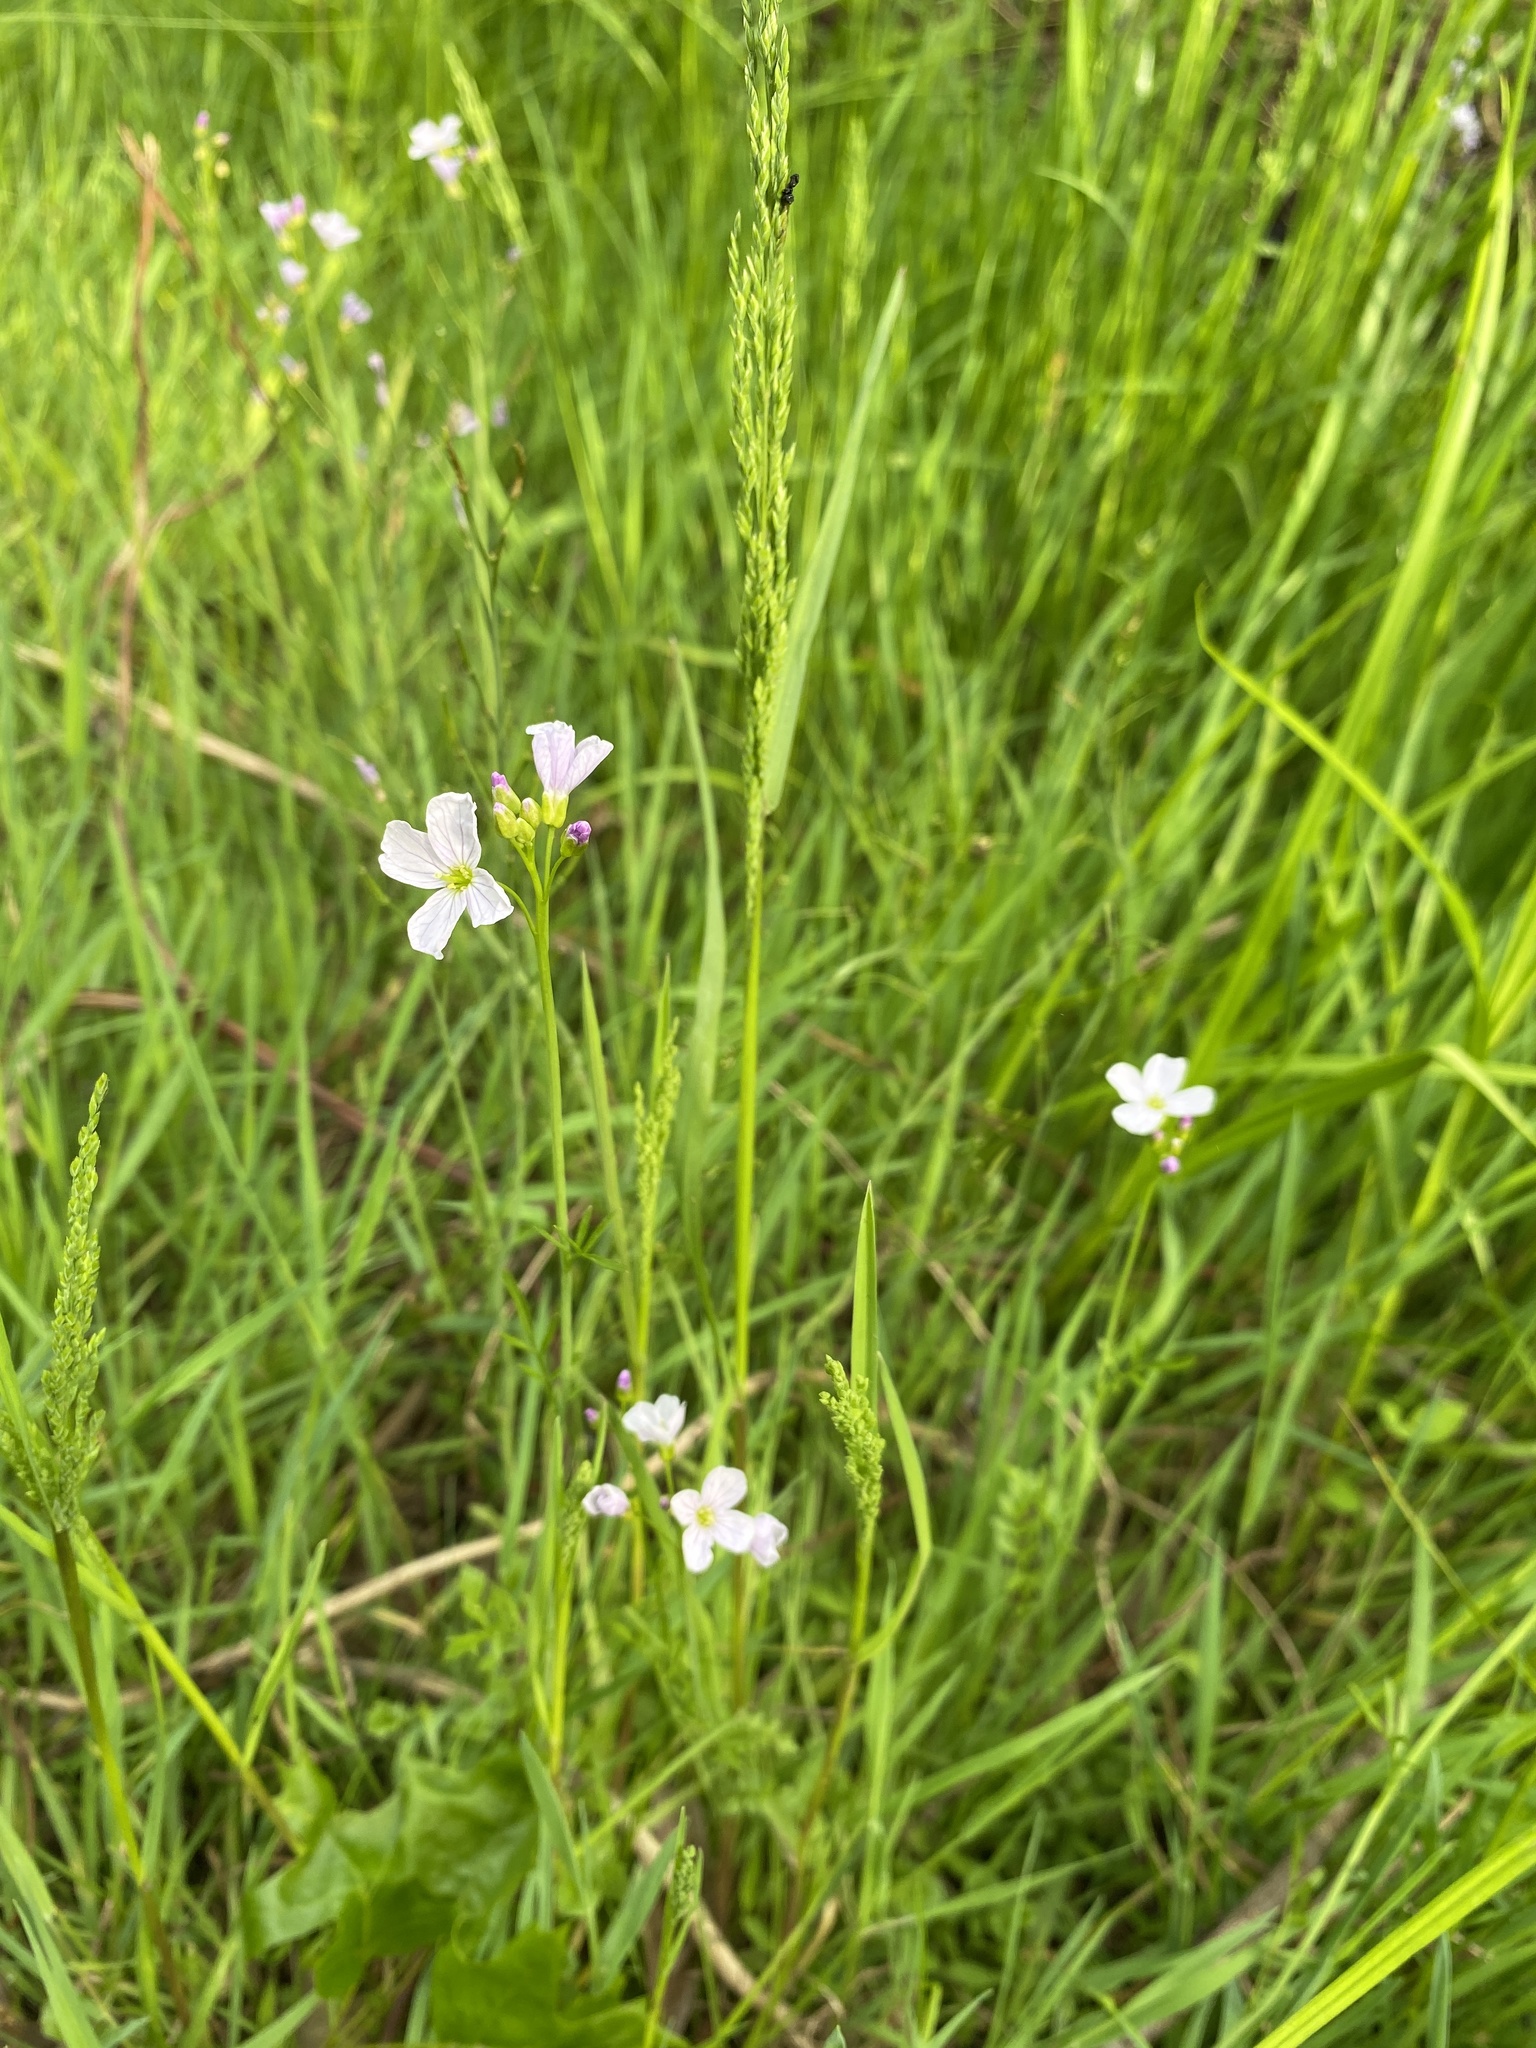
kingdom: Plantae
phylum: Tracheophyta
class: Magnoliopsida
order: Brassicales
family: Brassicaceae
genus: Cardamine
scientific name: Cardamine pratensis
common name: Cuckoo flower
